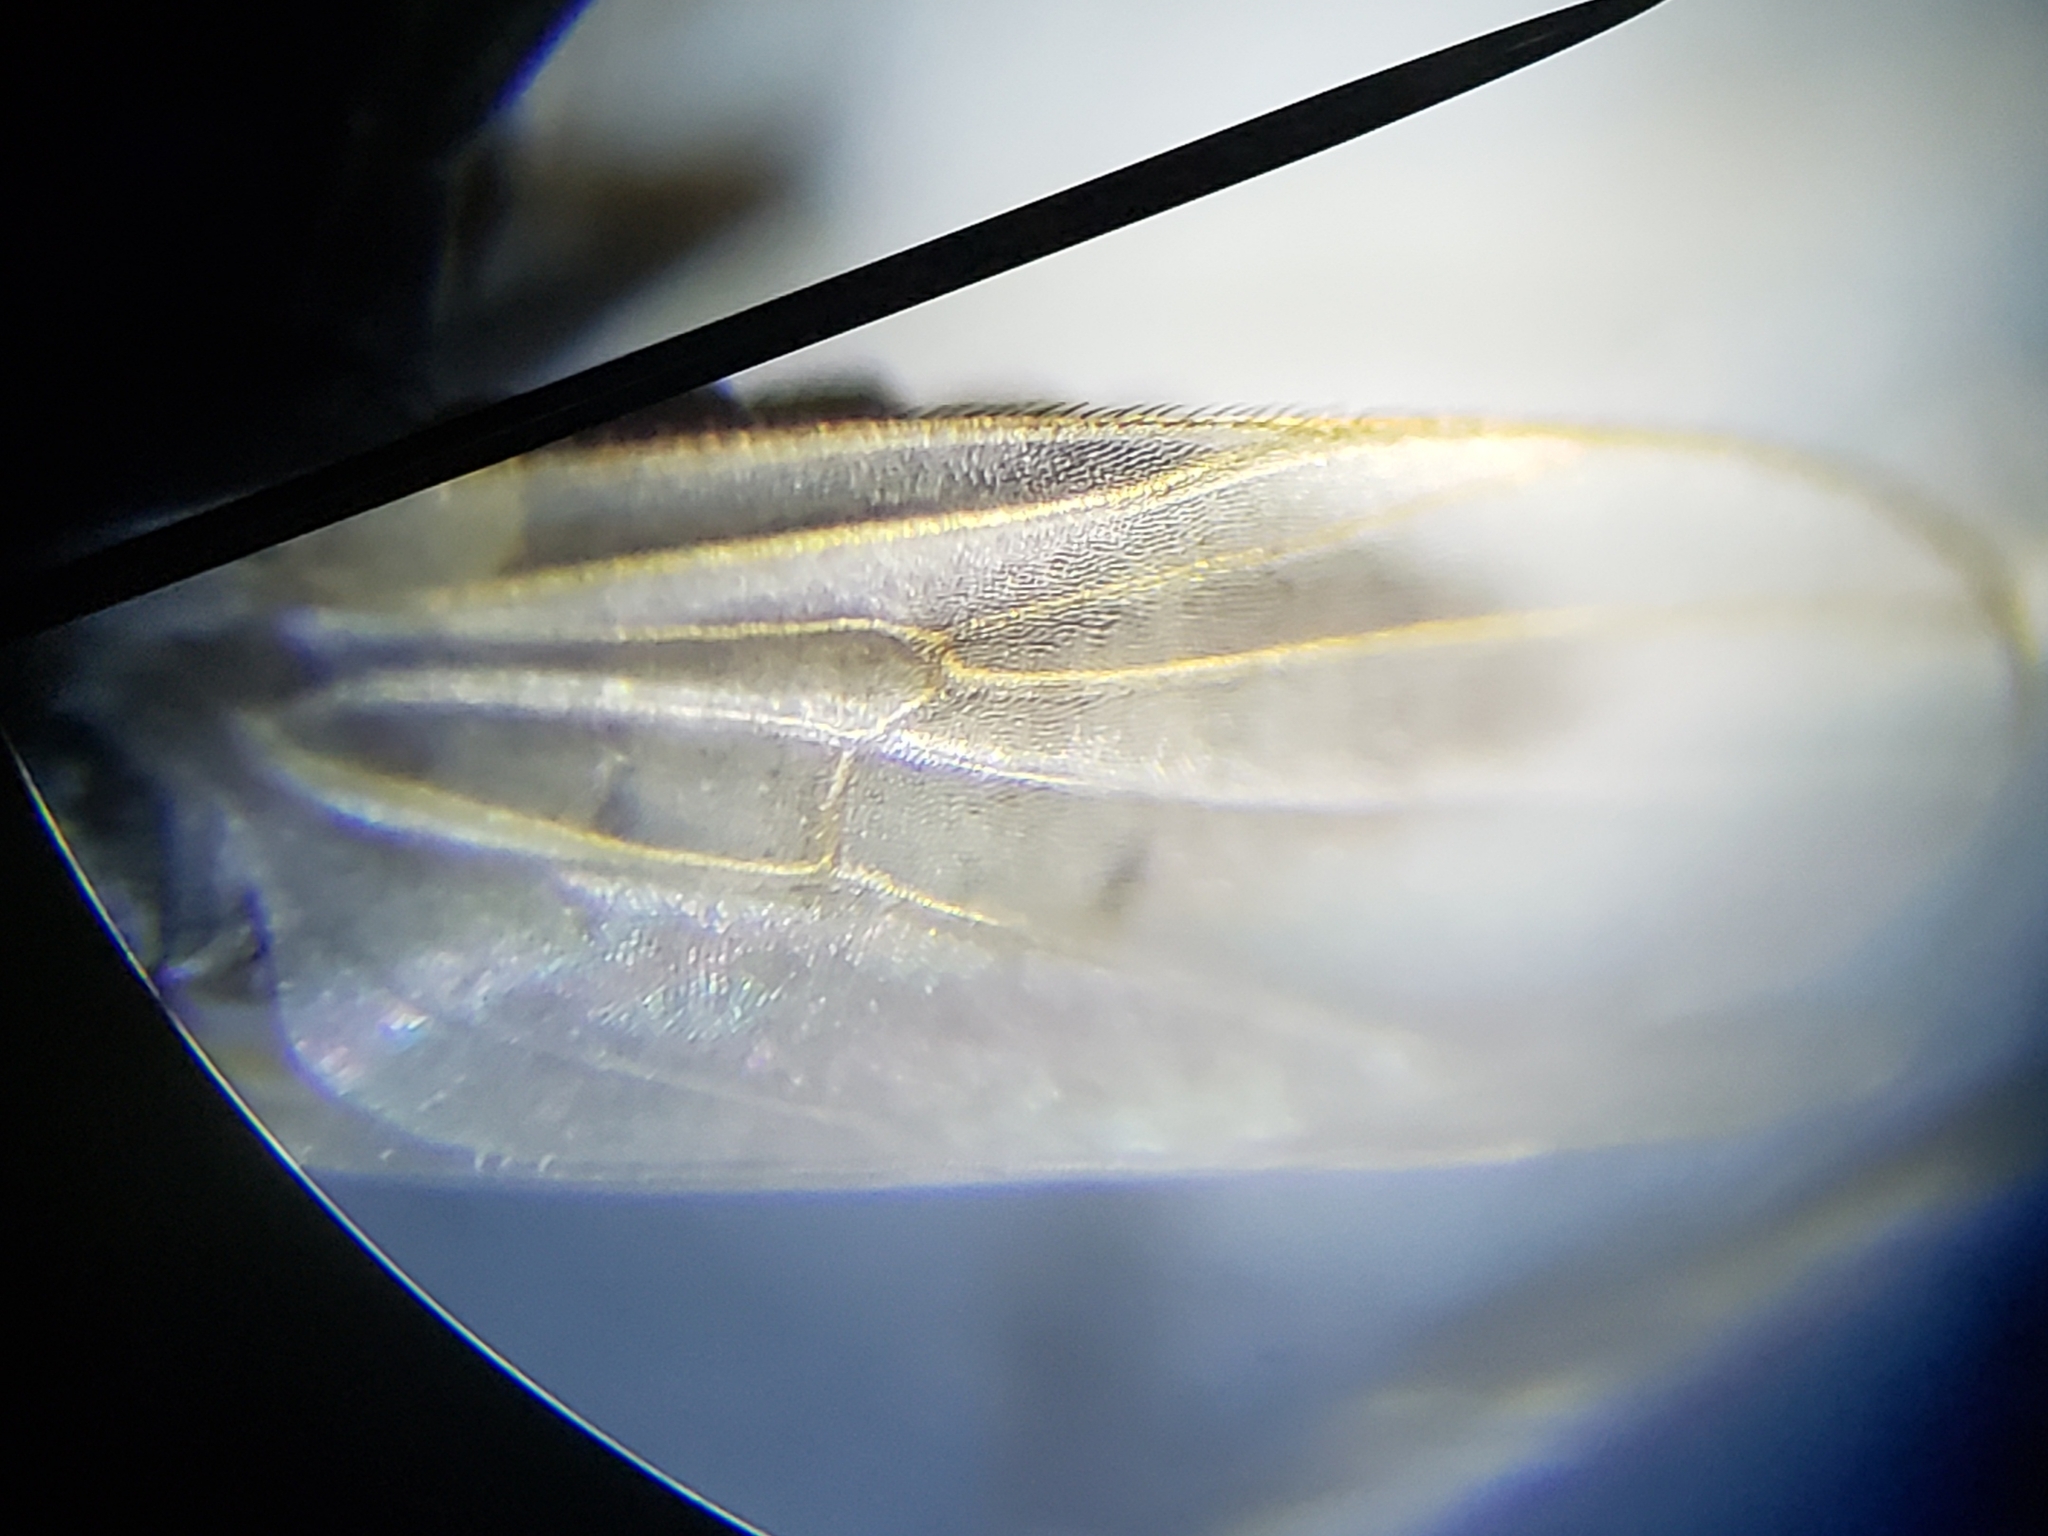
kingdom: Animalia
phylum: Arthropoda
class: Insecta
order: Diptera
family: Hybotidae
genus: Chersodromia
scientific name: Chersodromia inusitata
